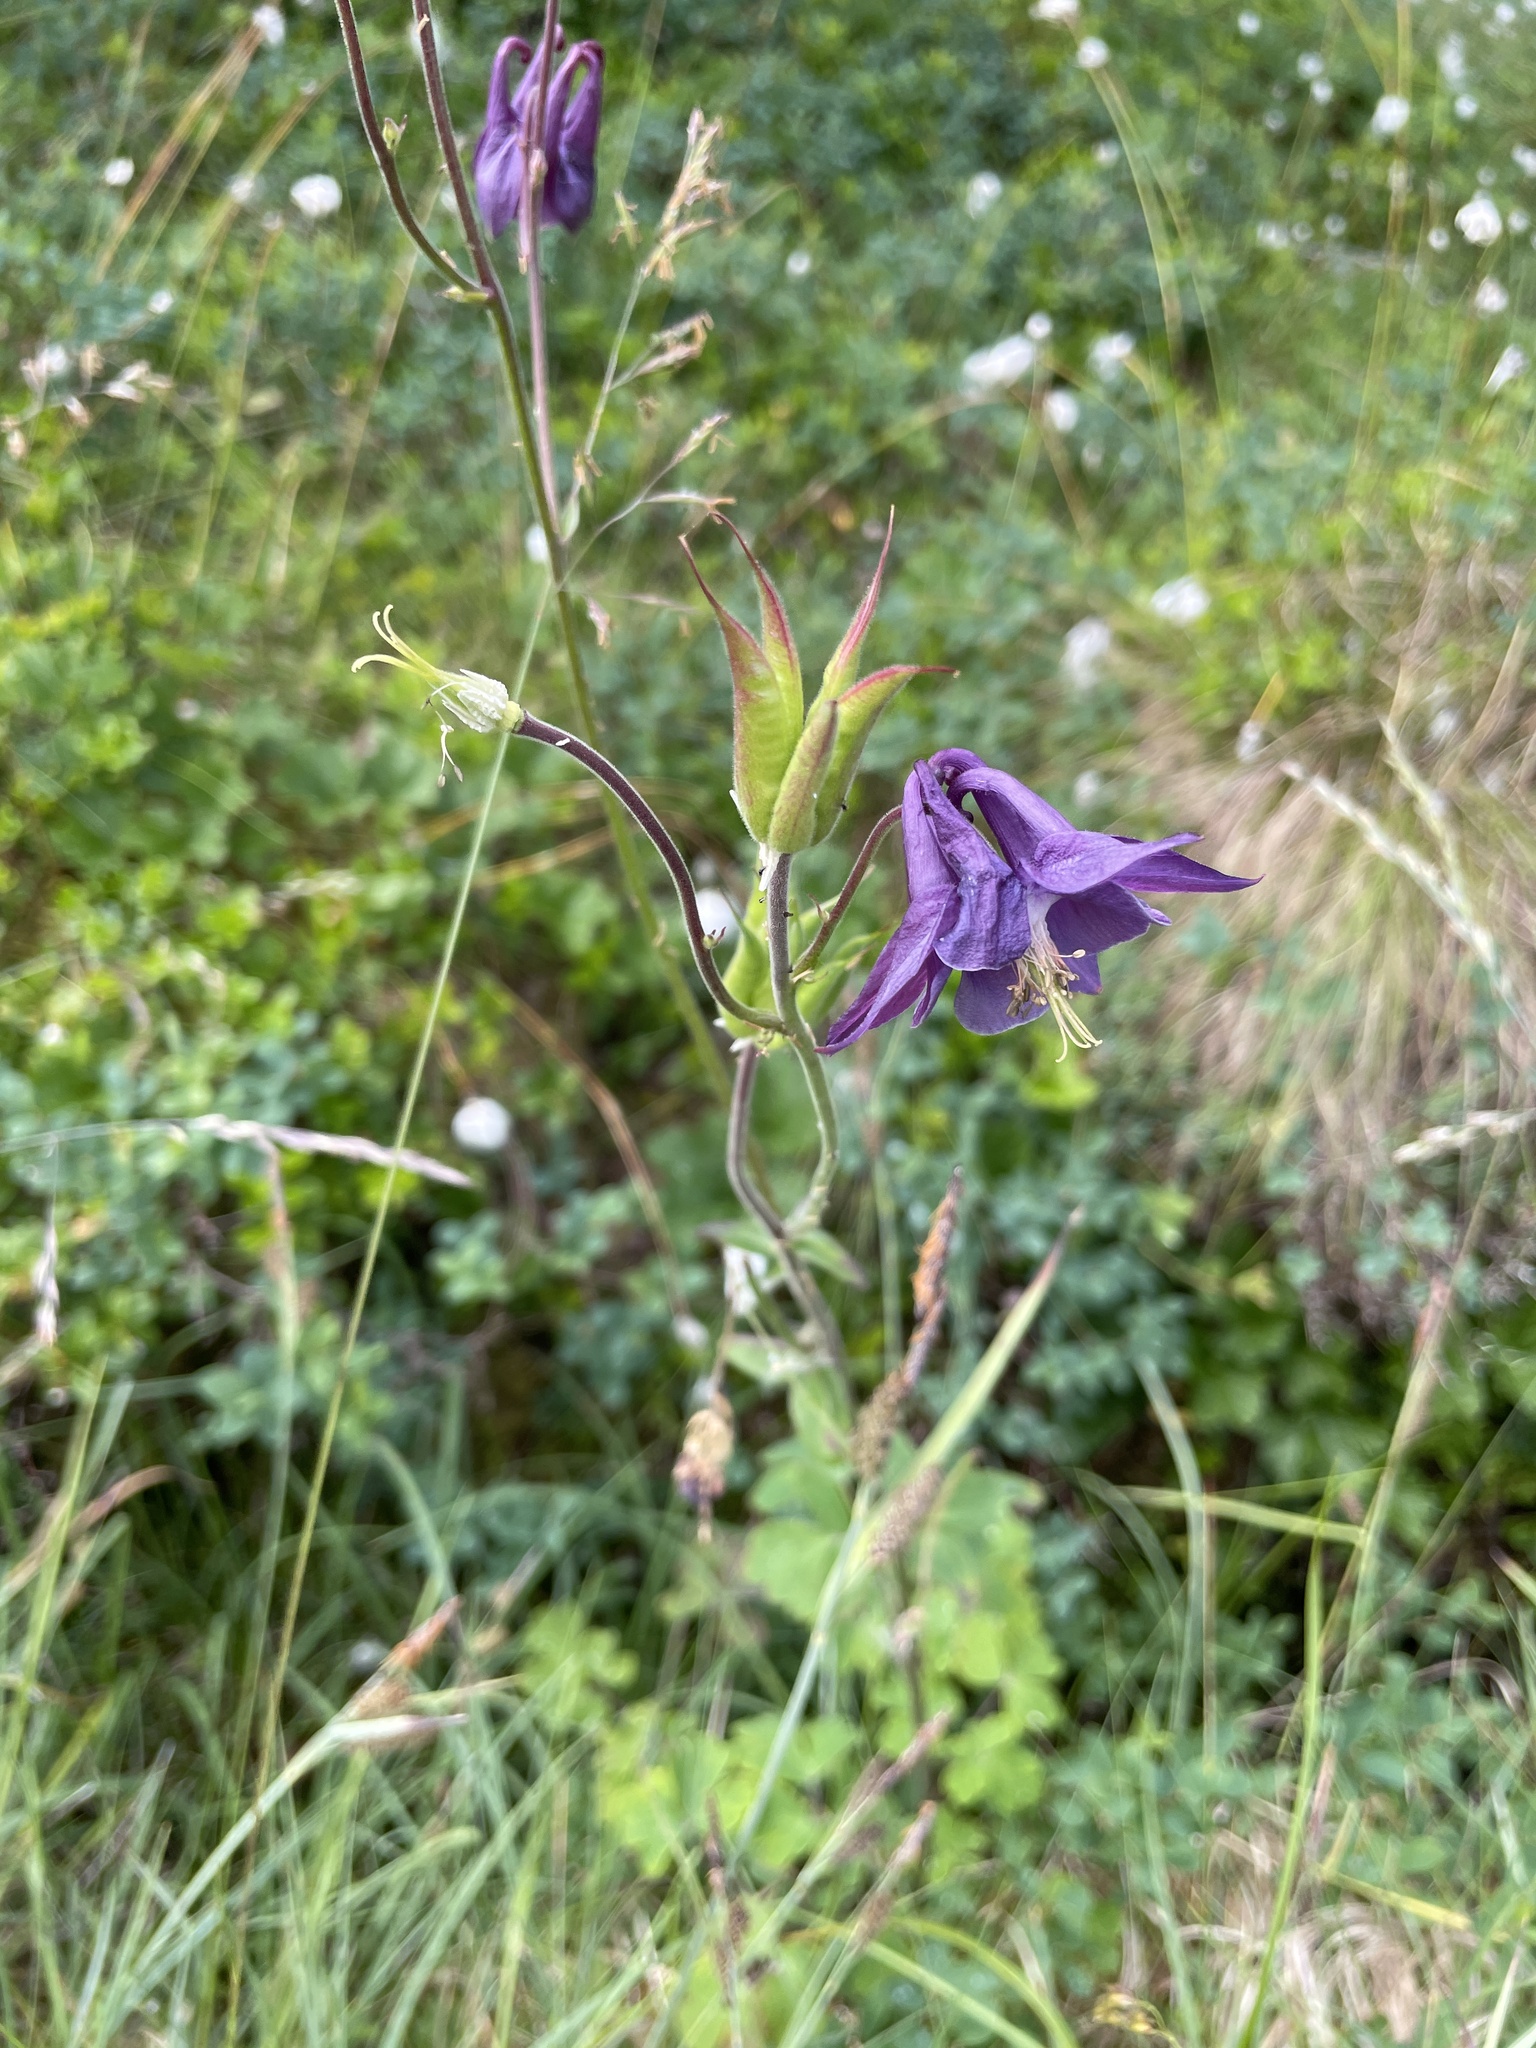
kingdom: Plantae
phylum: Tracheophyta
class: Magnoliopsida
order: Ranunculales
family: Ranunculaceae
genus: Aquilegia
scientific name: Aquilegia vulgaris
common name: Columbine
